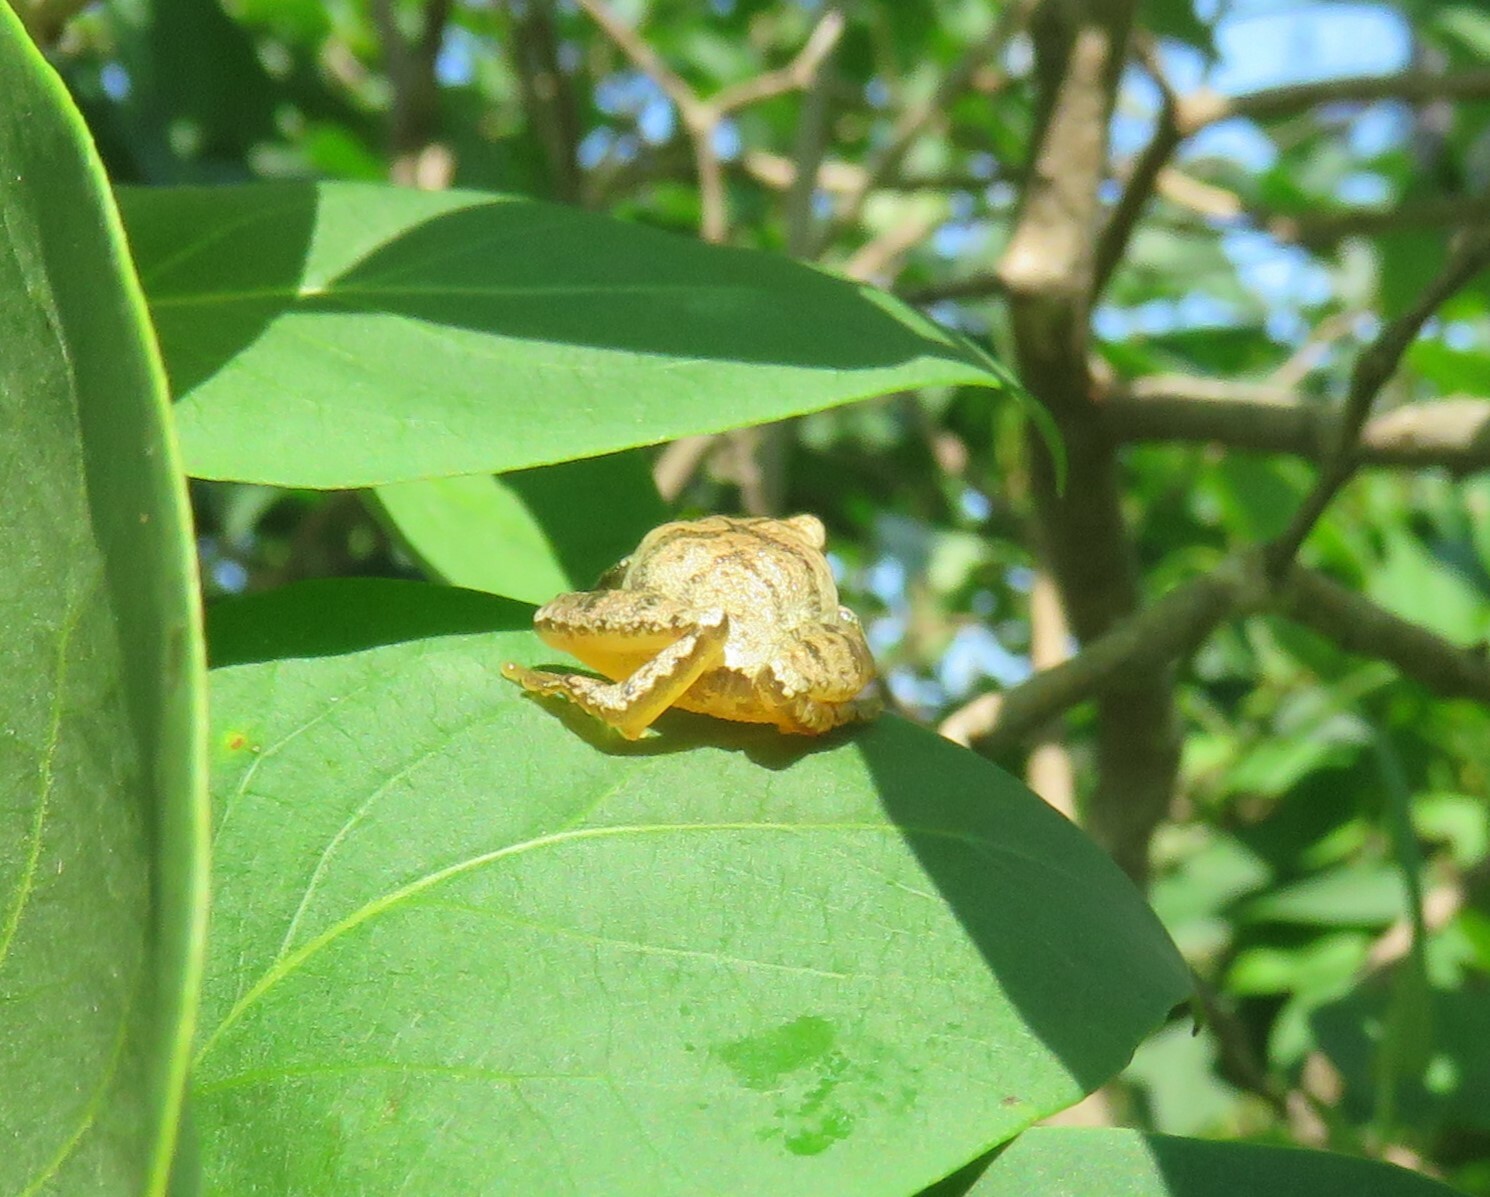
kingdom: Animalia
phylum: Chordata
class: Amphibia
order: Anura
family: Hylidae
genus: Pseudacris
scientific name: Pseudacris crucifer
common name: Spring peeper
